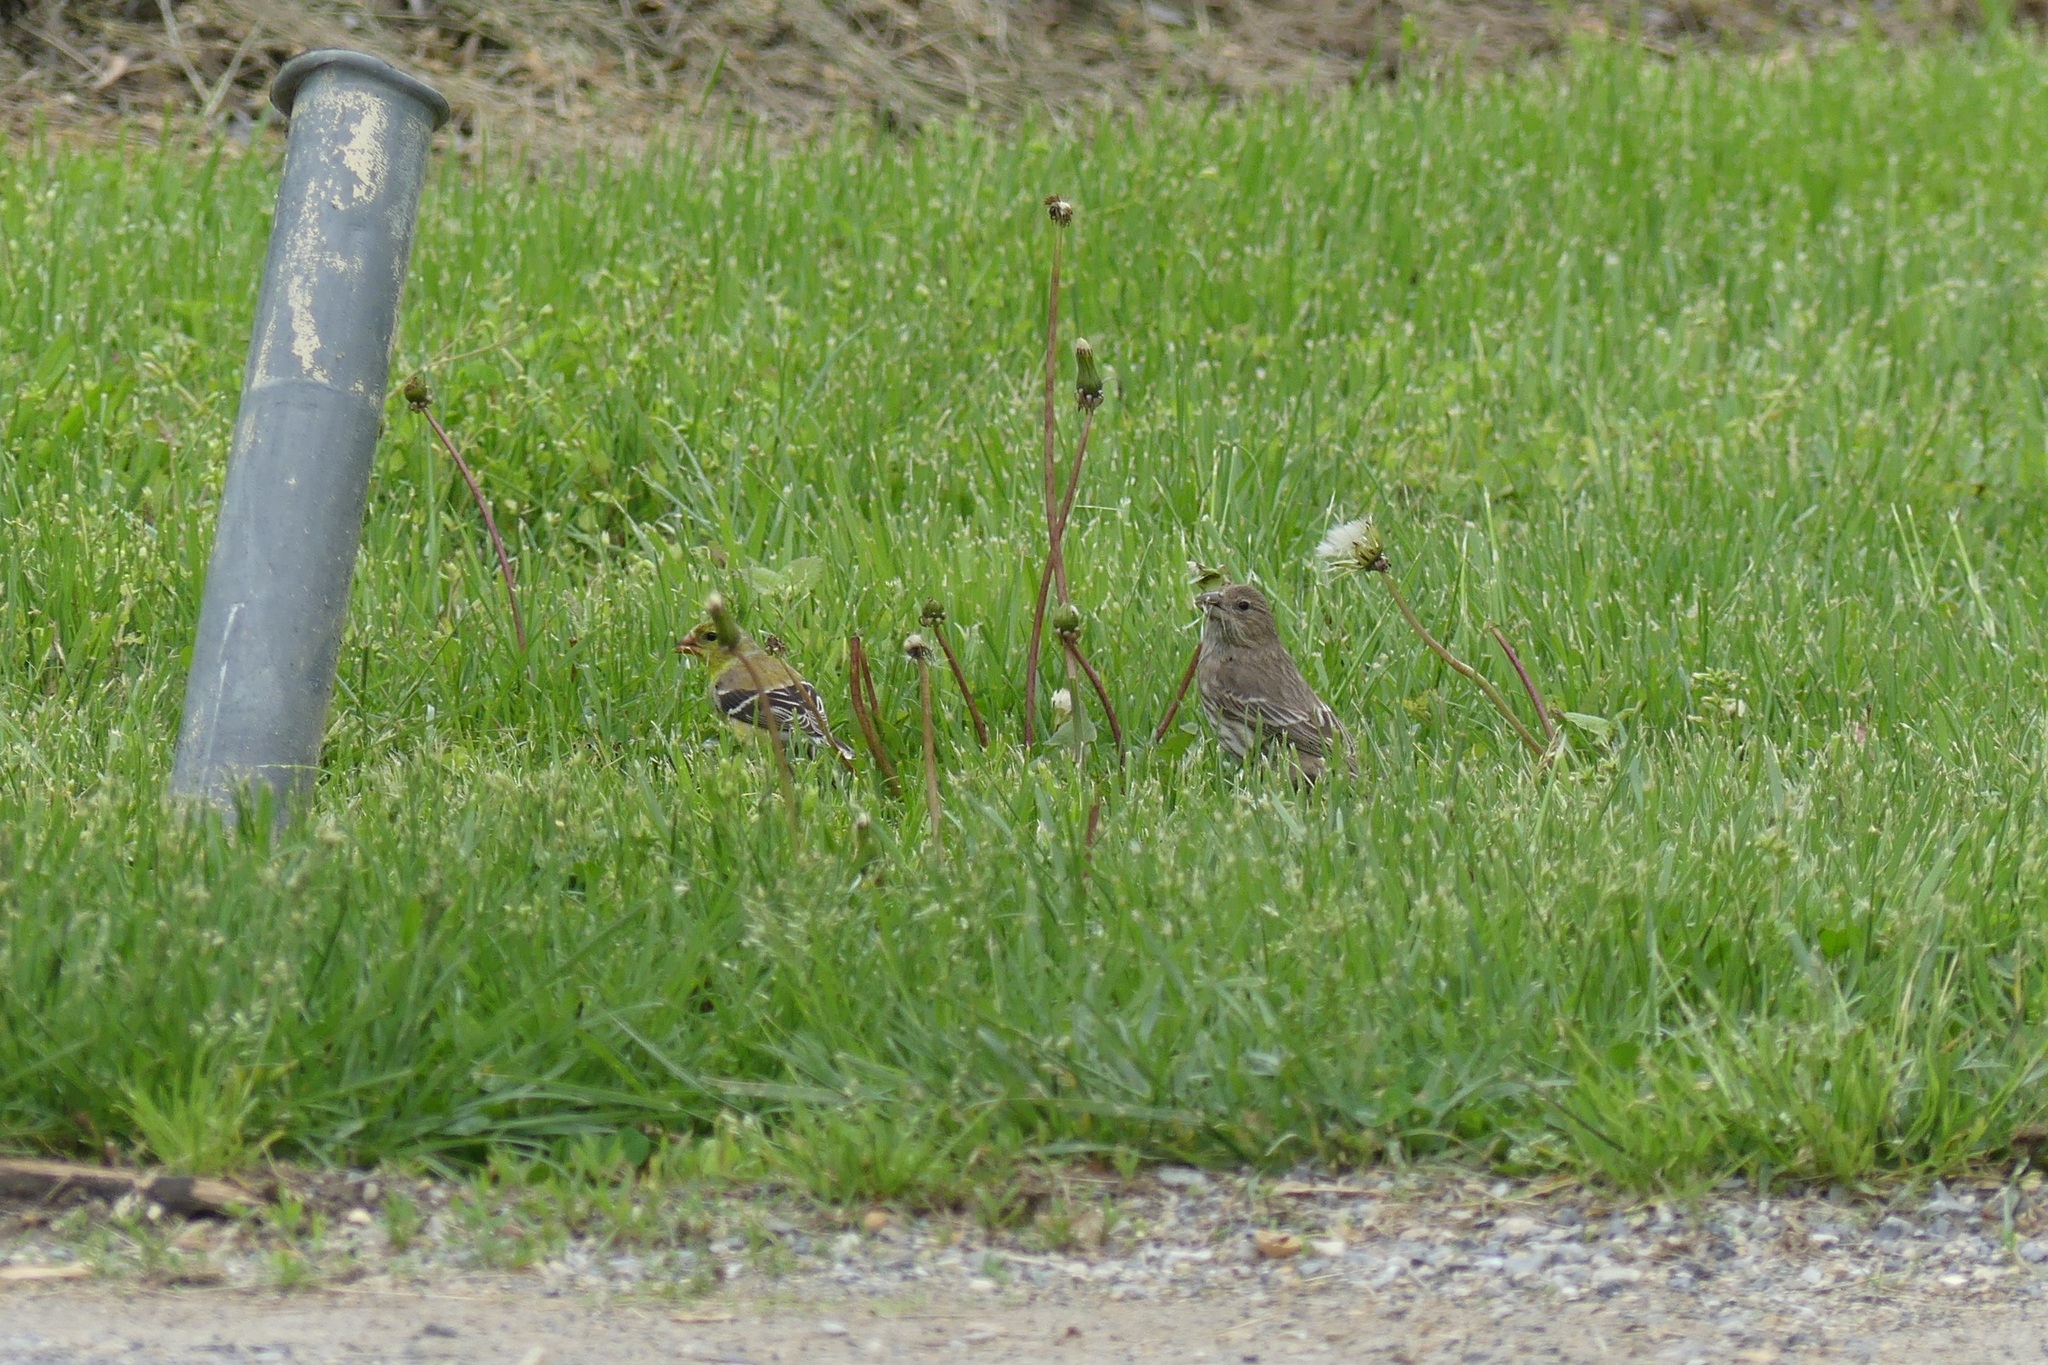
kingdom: Animalia
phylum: Chordata
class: Aves
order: Passeriformes
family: Fringillidae
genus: Spinus
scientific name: Spinus tristis
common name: American goldfinch
